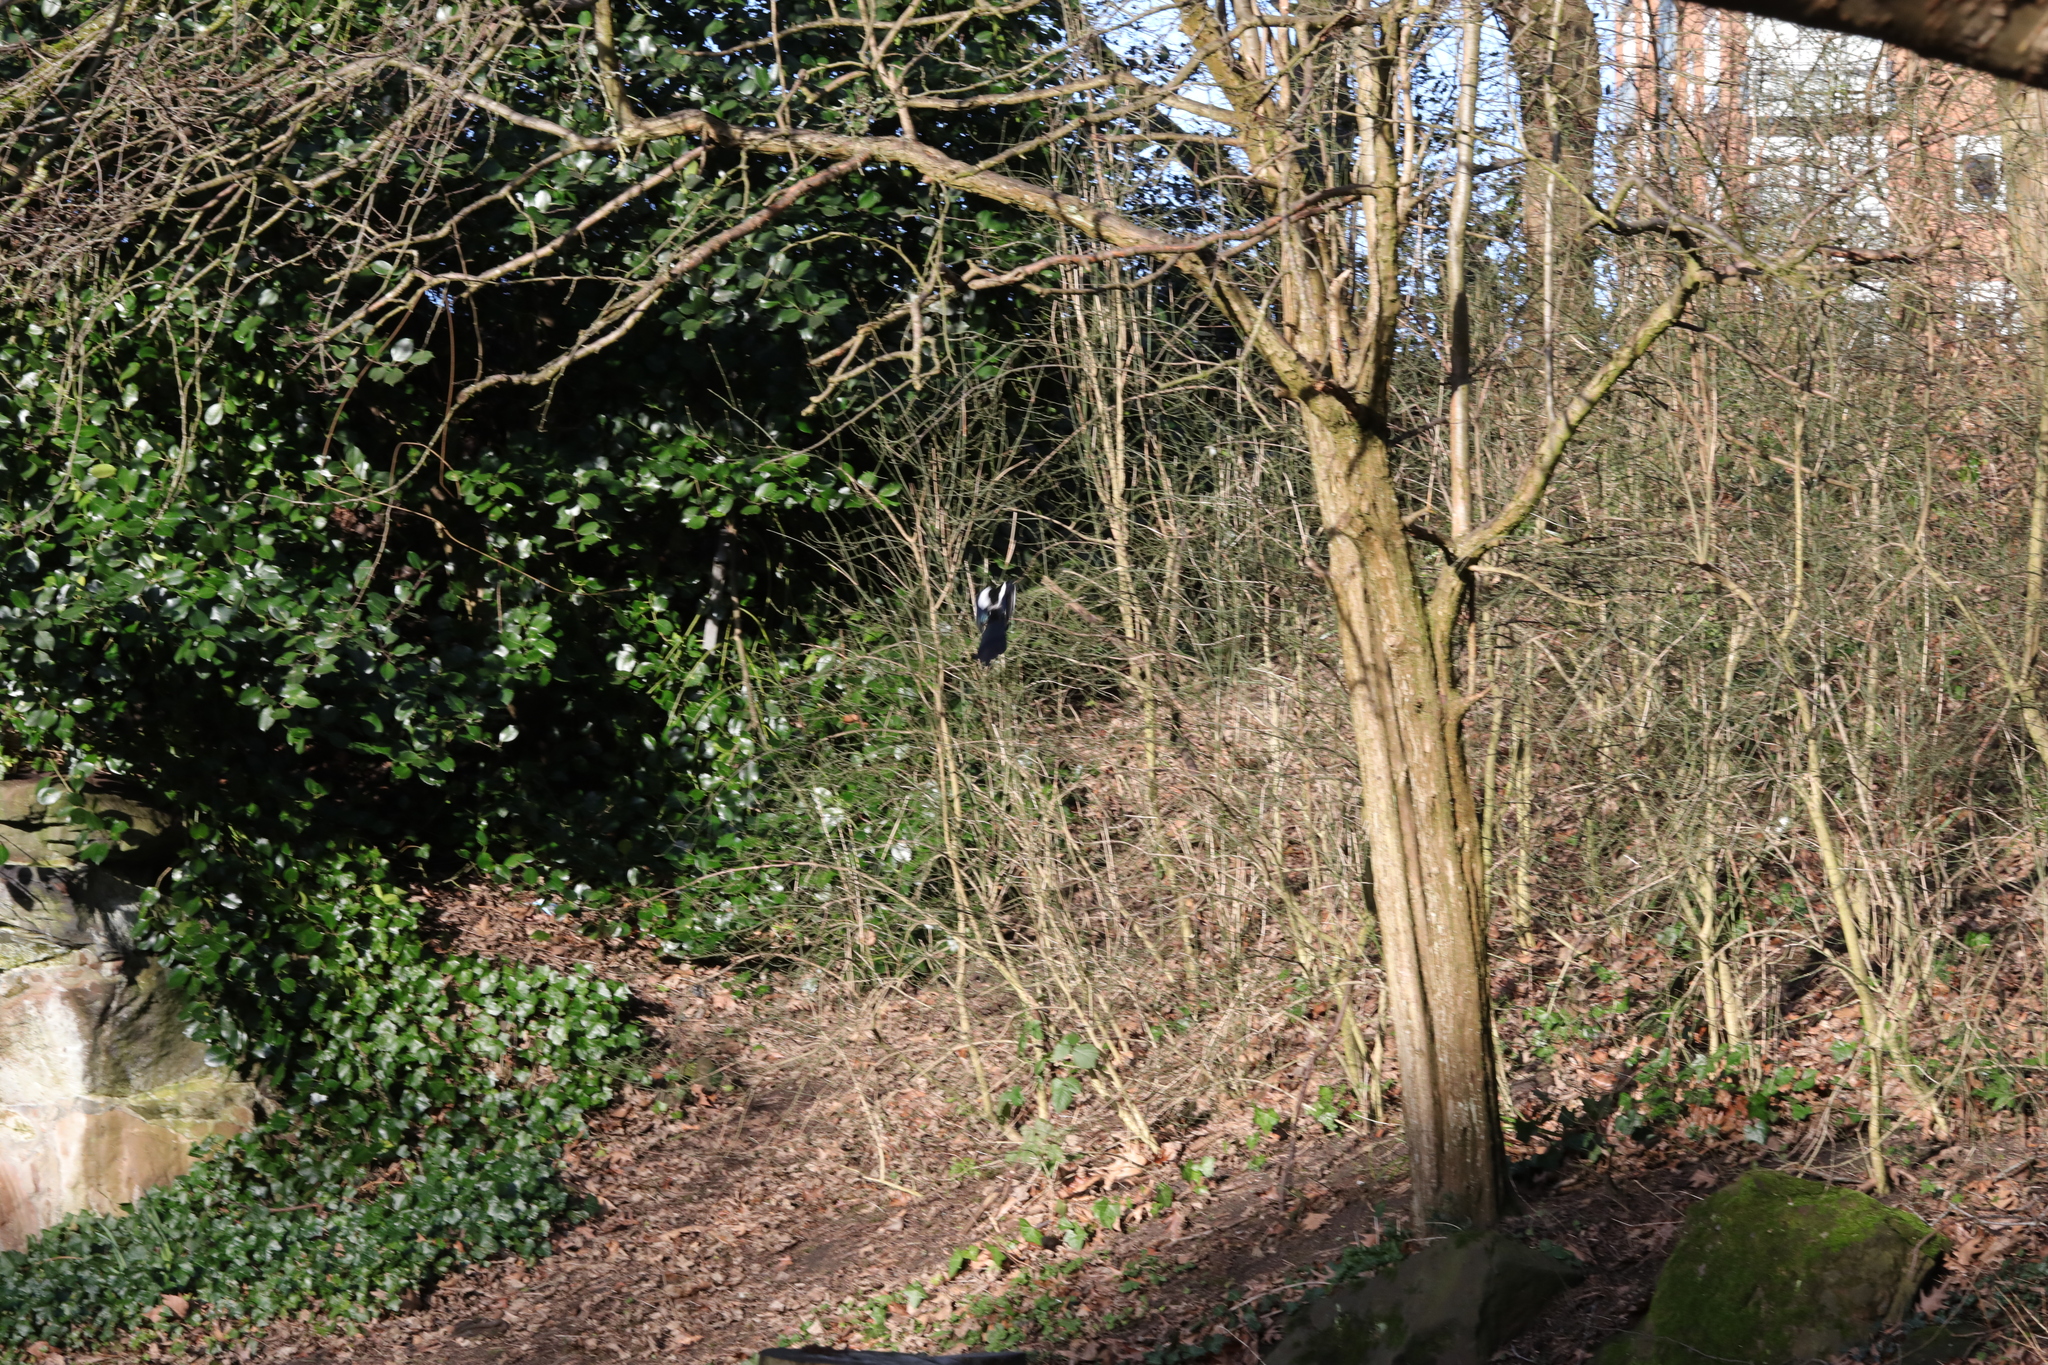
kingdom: Animalia
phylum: Chordata
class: Aves
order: Passeriformes
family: Corvidae
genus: Pica
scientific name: Pica pica
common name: Eurasian magpie
